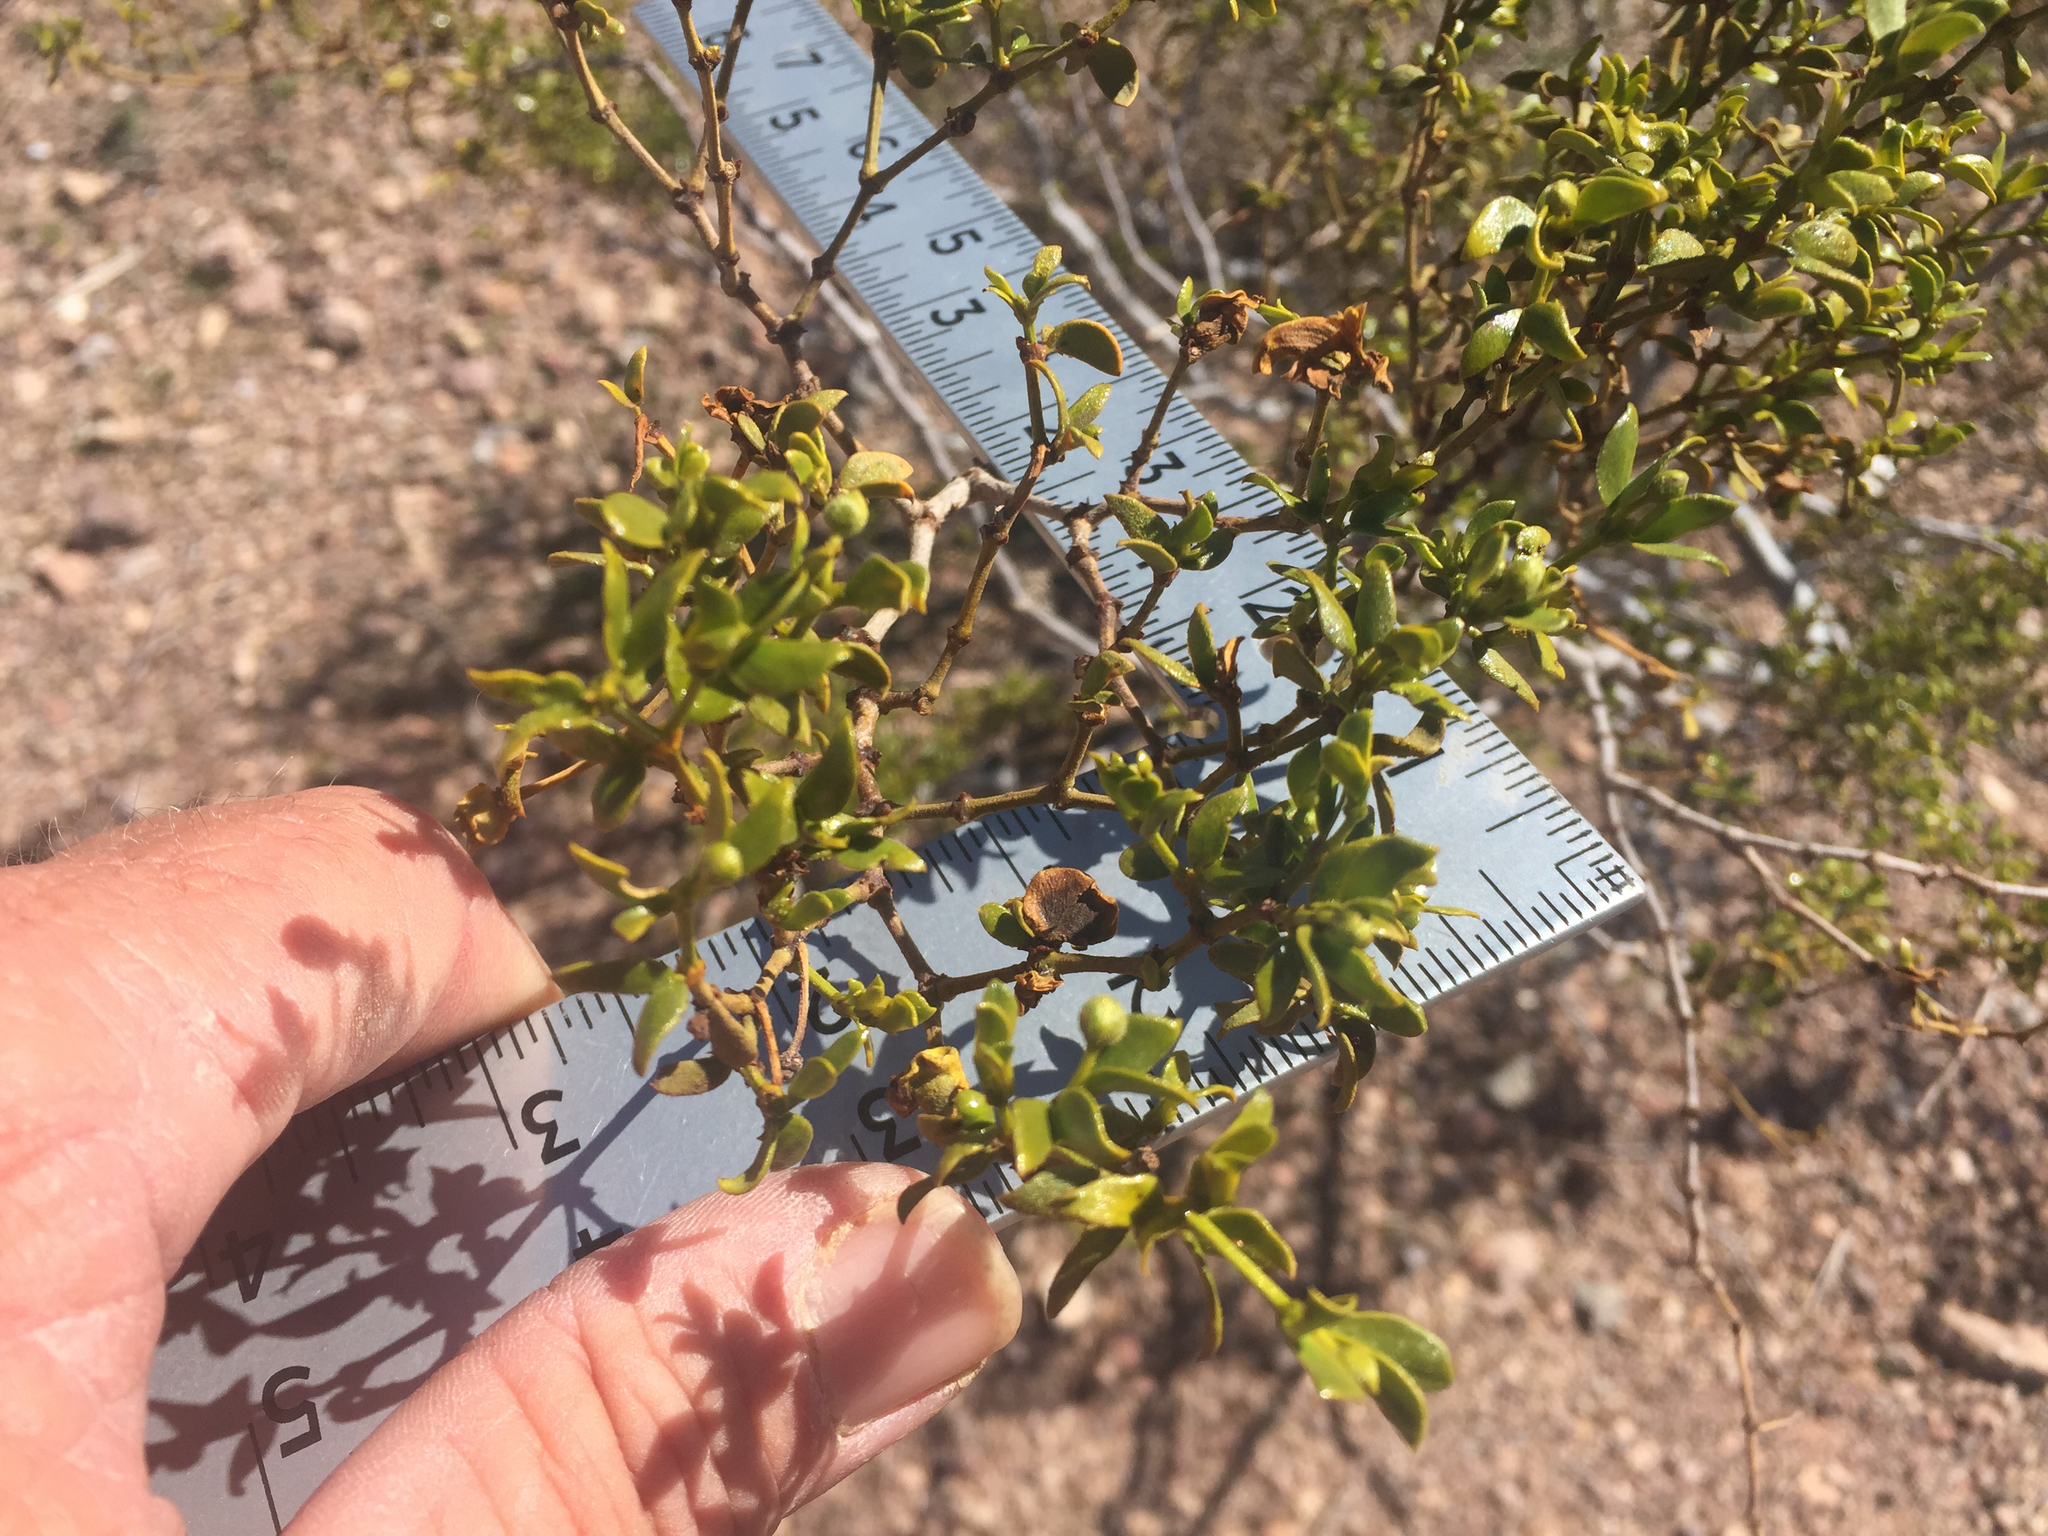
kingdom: Plantae
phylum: Tracheophyta
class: Magnoliopsida
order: Zygophyllales
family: Zygophyllaceae
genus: Larrea
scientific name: Larrea tridentata
